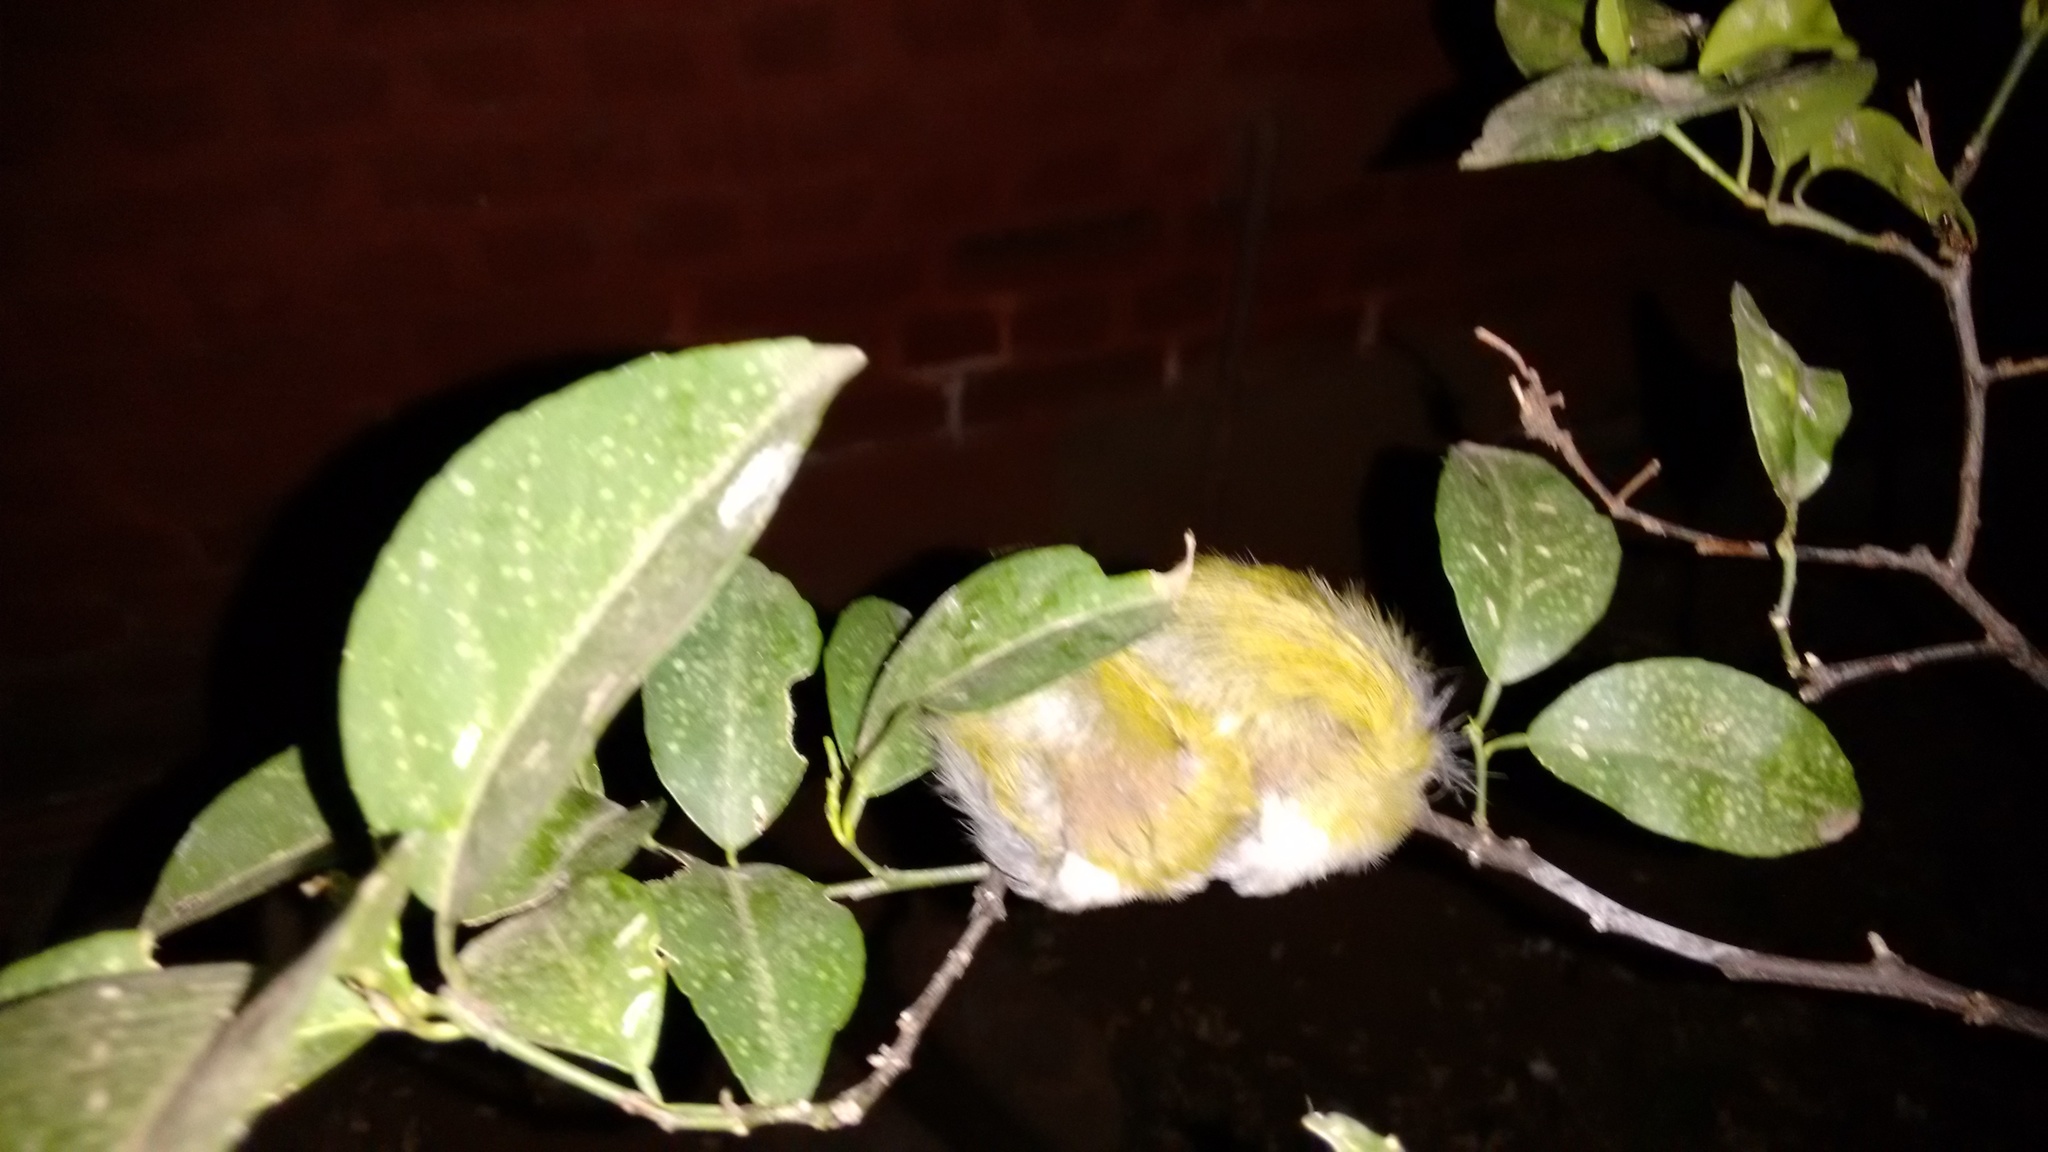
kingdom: Animalia
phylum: Chordata
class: Aves
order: Passeriformes
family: Cisticolidae
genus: Orthotomus
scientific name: Orthotomus sutorius
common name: Common tailorbird
